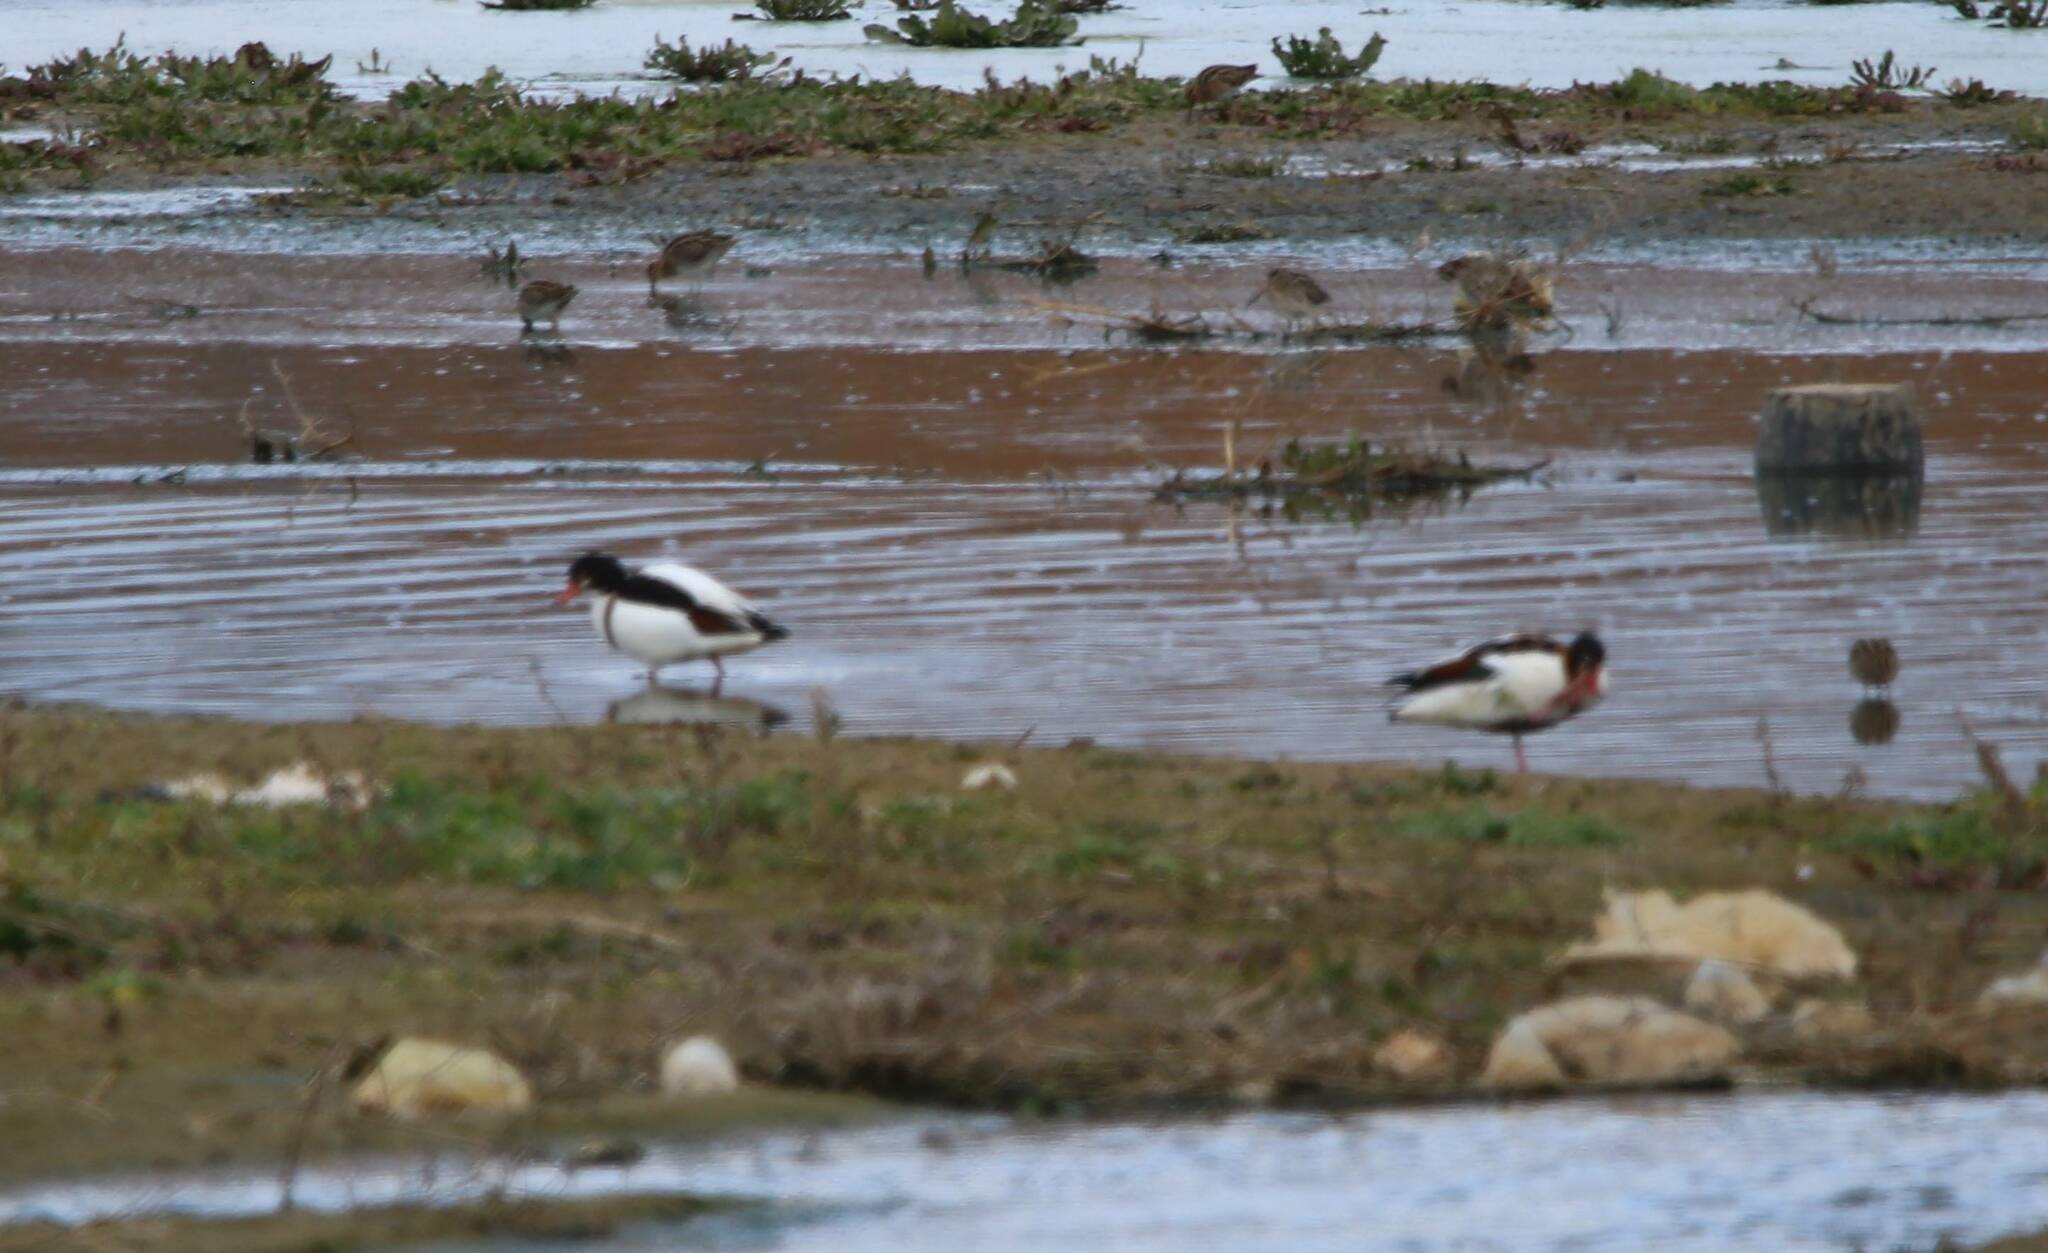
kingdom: Animalia
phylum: Chordata
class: Aves
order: Anseriformes
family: Anatidae
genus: Tadorna
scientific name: Tadorna tadorna
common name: Common shelduck
